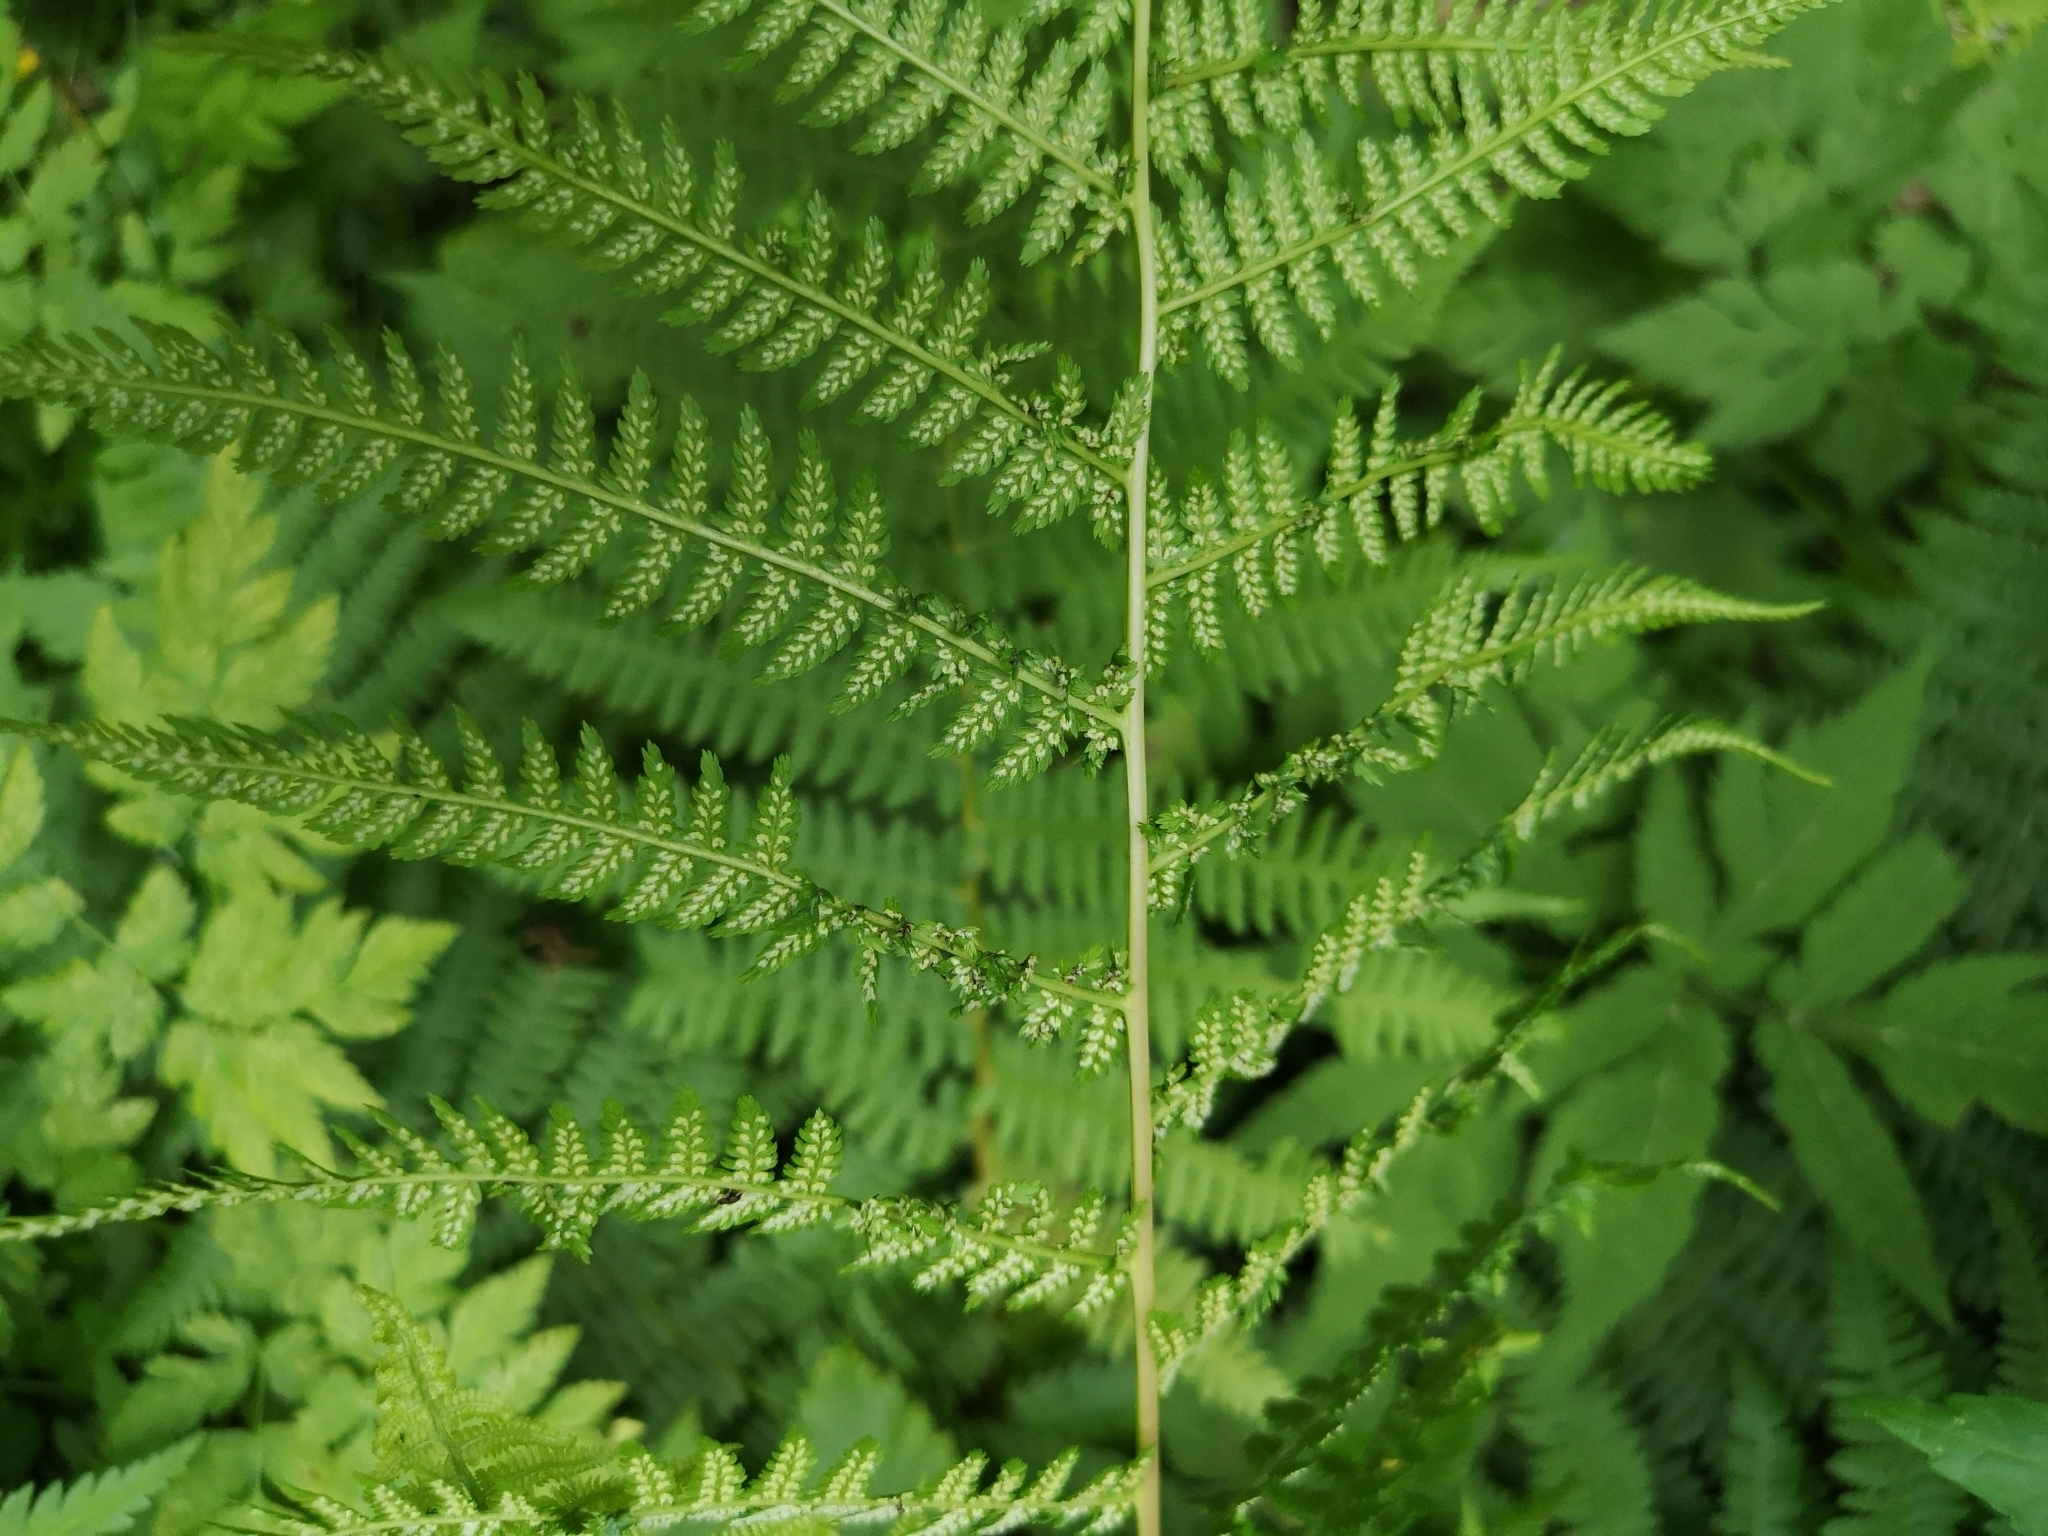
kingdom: Plantae
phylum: Tracheophyta
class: Polypodiopsida
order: Polypodiales
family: Athyriaceae
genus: Athyrium
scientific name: Athyrium filix-femina
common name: Lady fern
